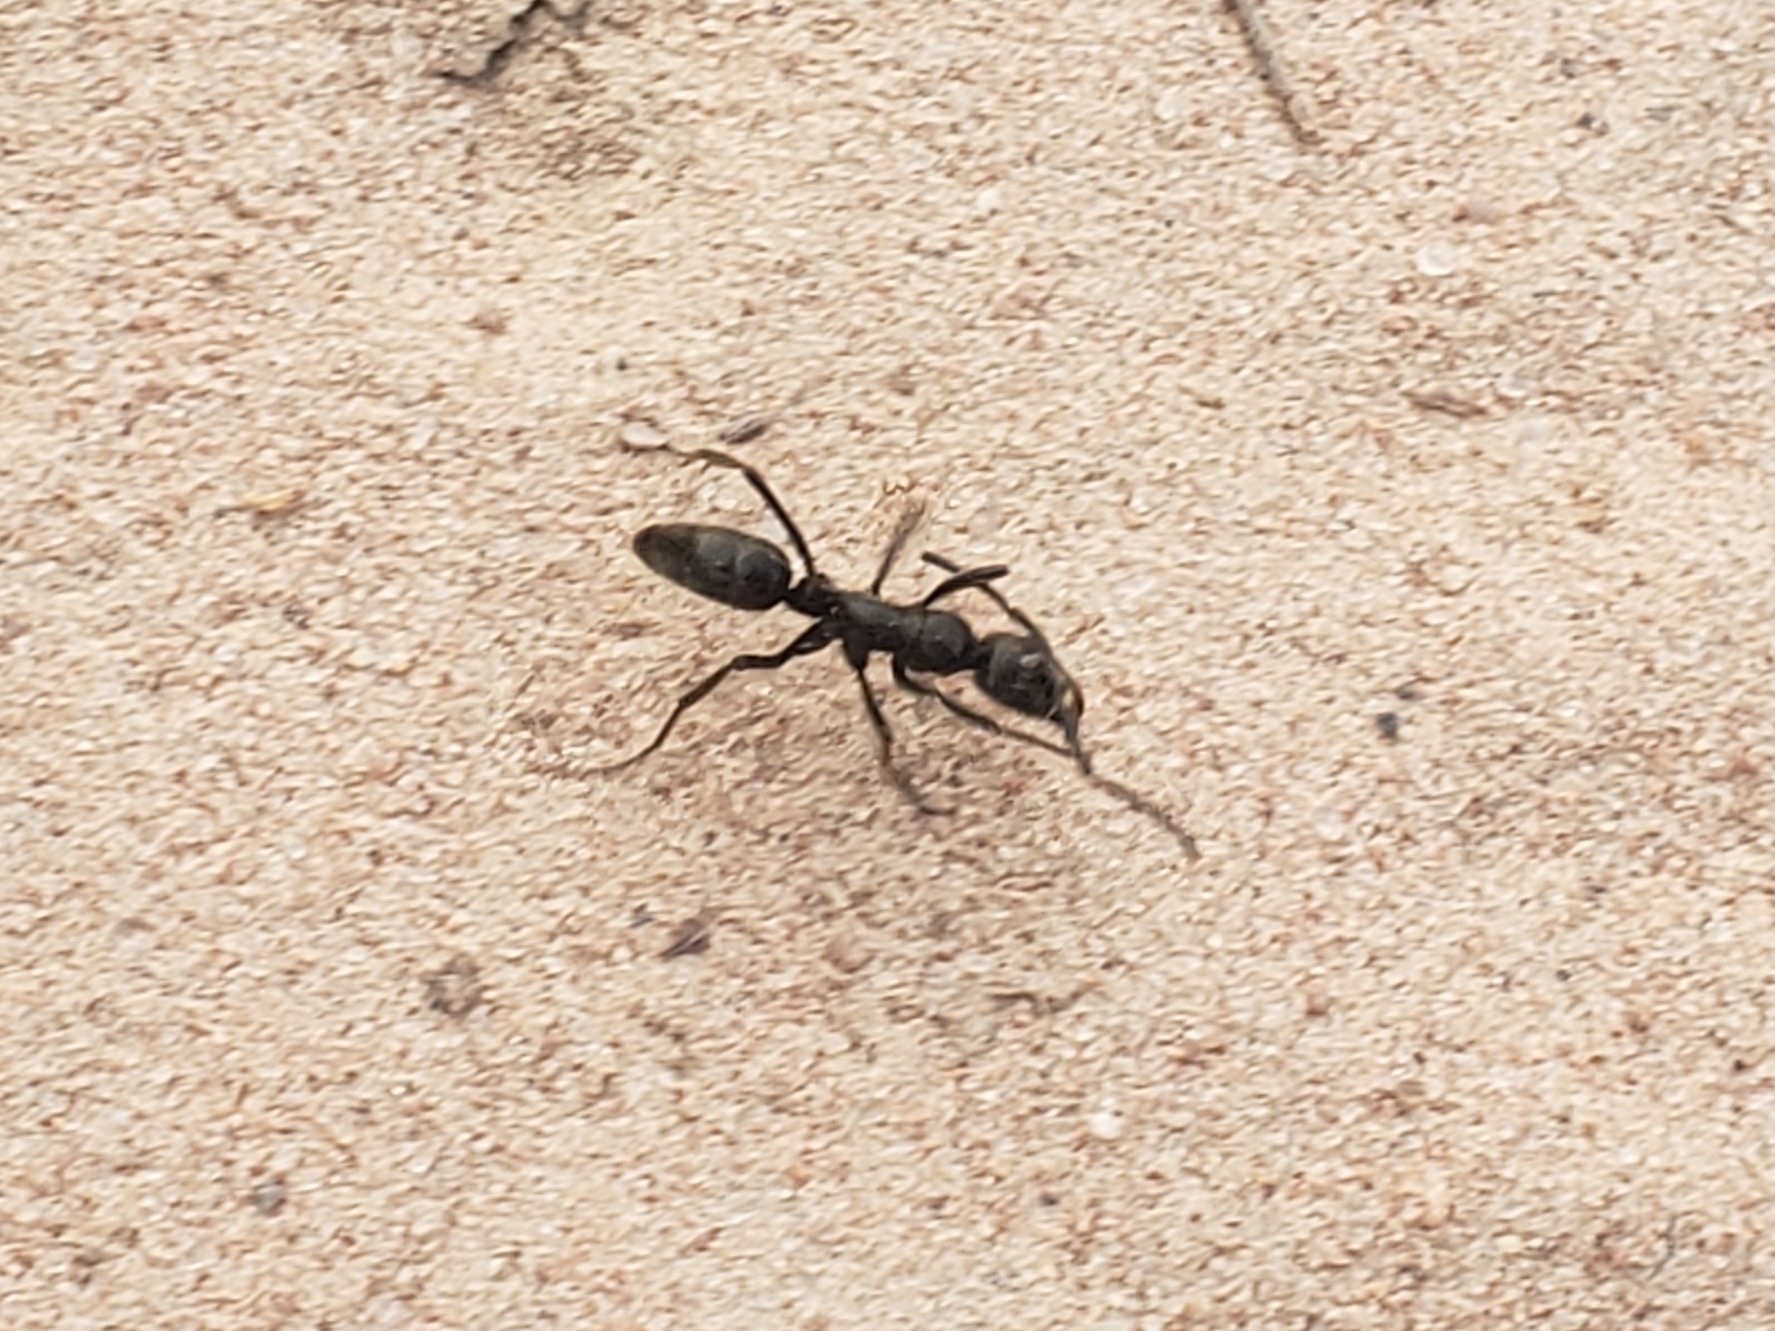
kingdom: Animalia
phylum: Arthropoda
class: Insecta
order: Hymenoptera
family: Formicidae
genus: Megaponera
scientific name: Megaponera analis
